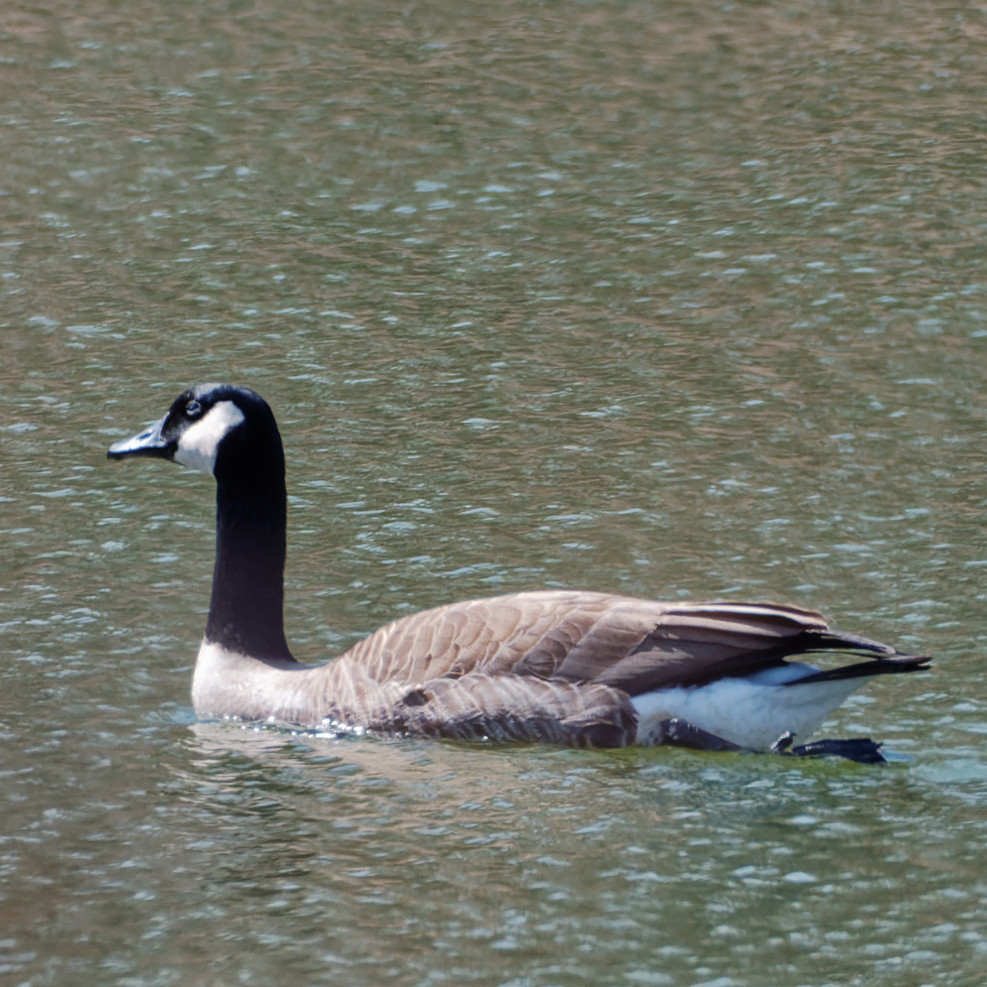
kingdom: Animalia
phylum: Chordata
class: Aves
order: Anseriformes
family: Anatidae
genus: Branta
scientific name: Branta canadensis
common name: Canada goose
